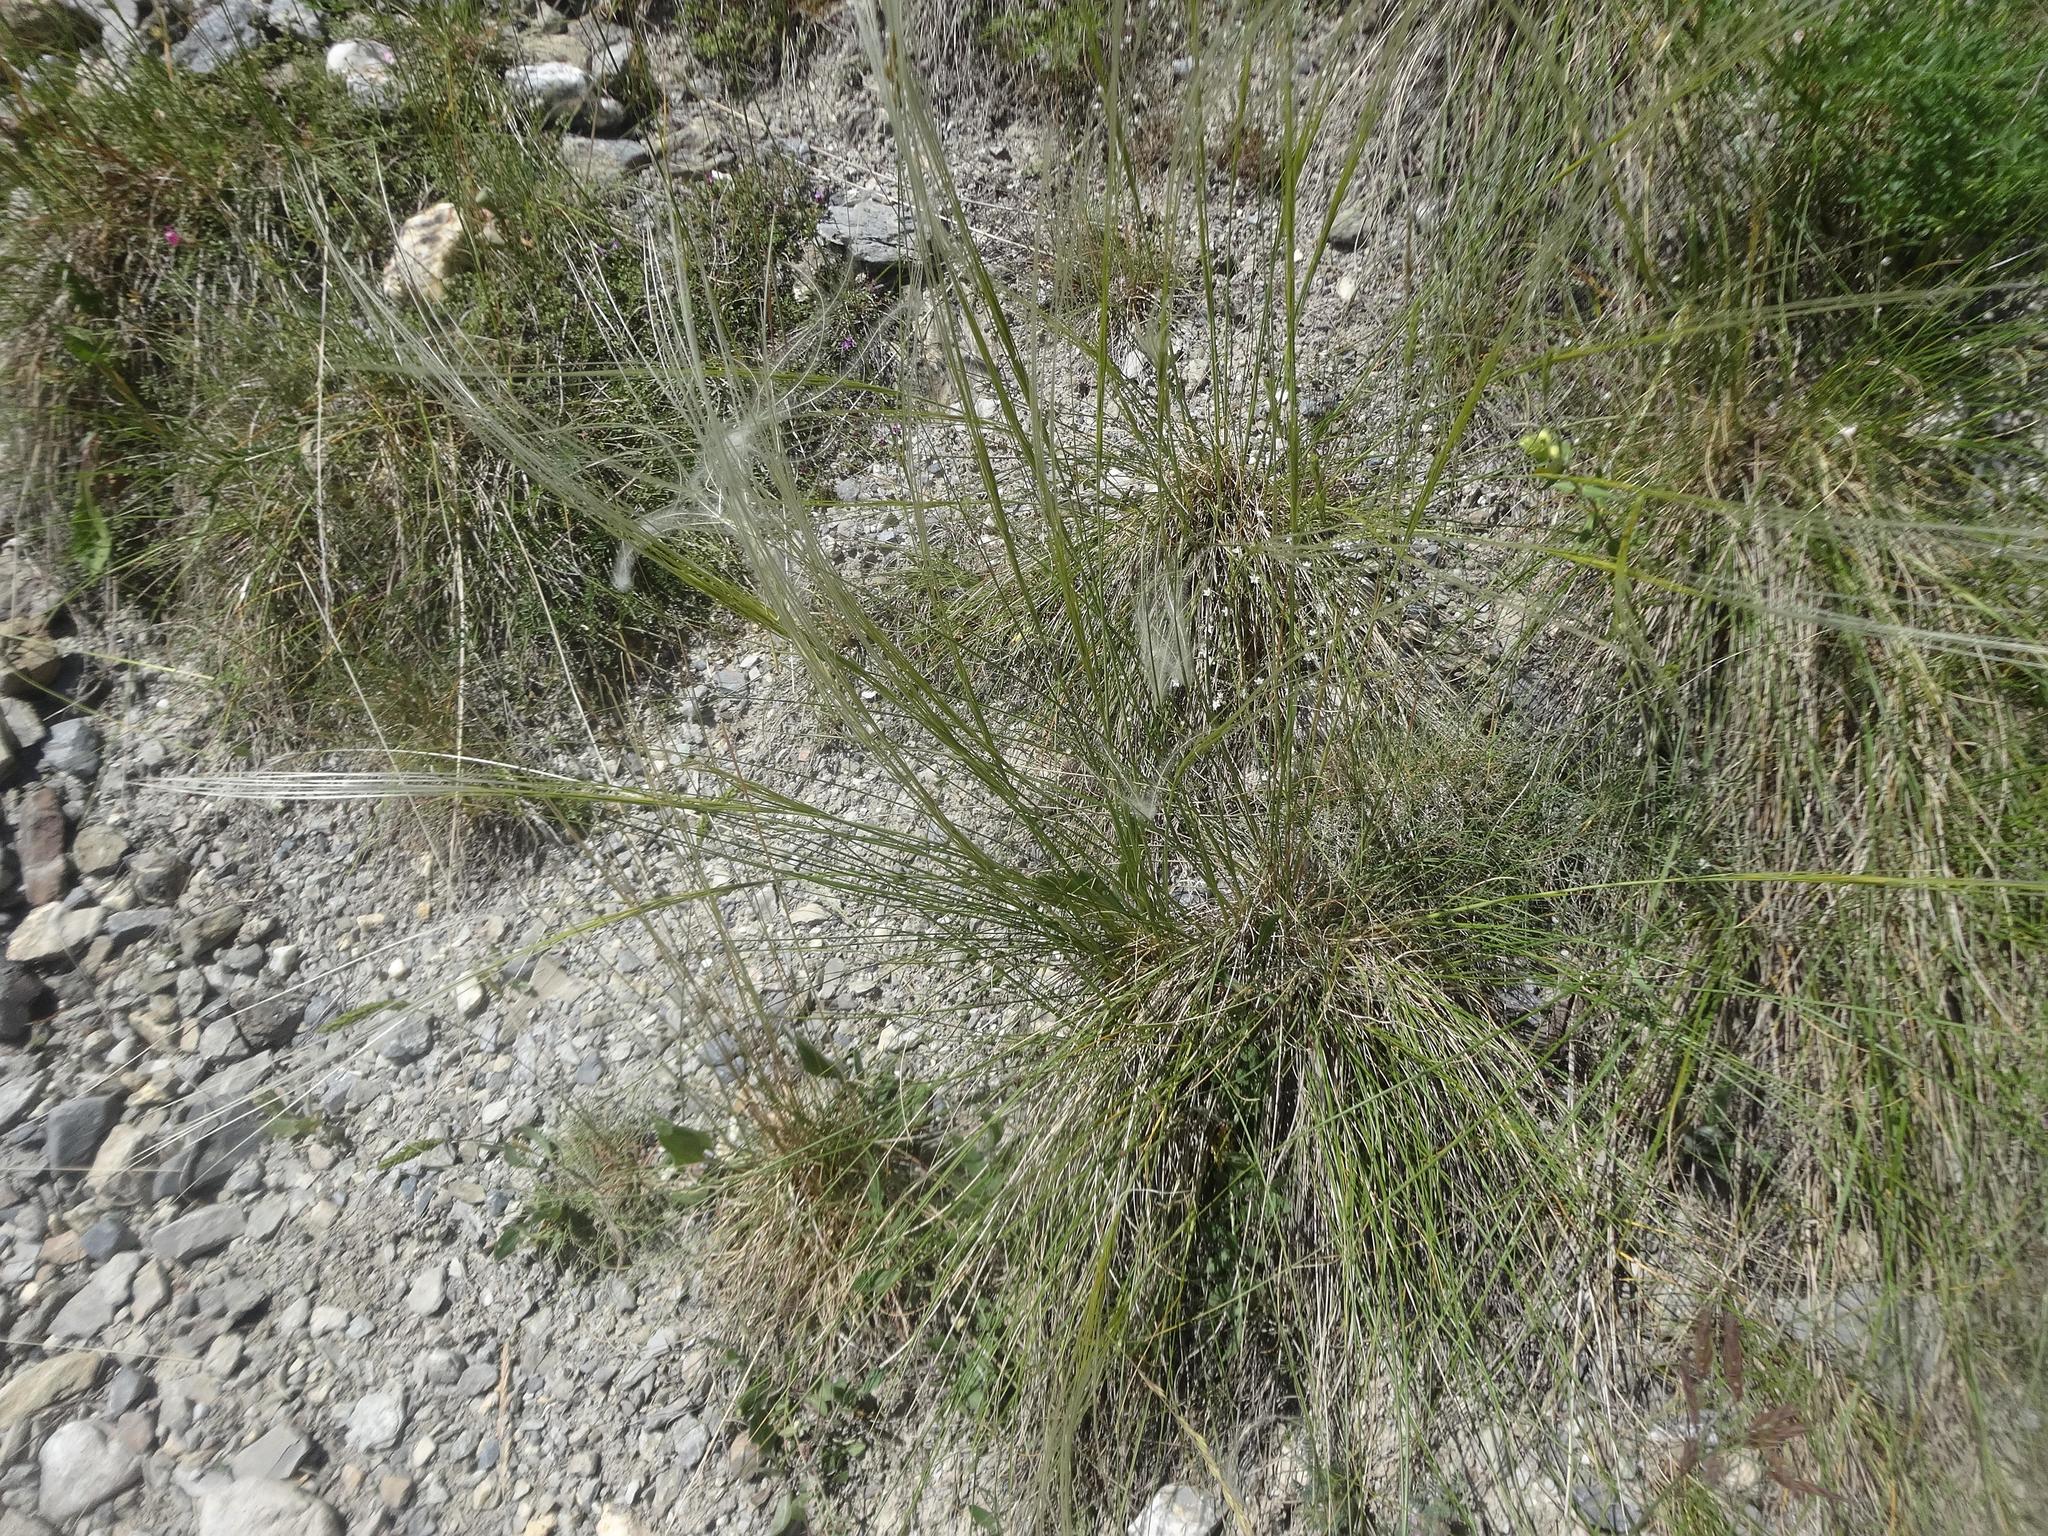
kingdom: Plantae
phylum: Tracheophyta
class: Liliopsida
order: Poales
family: Poaceae
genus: Stipa
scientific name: Stipa pennata
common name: European feather grass
